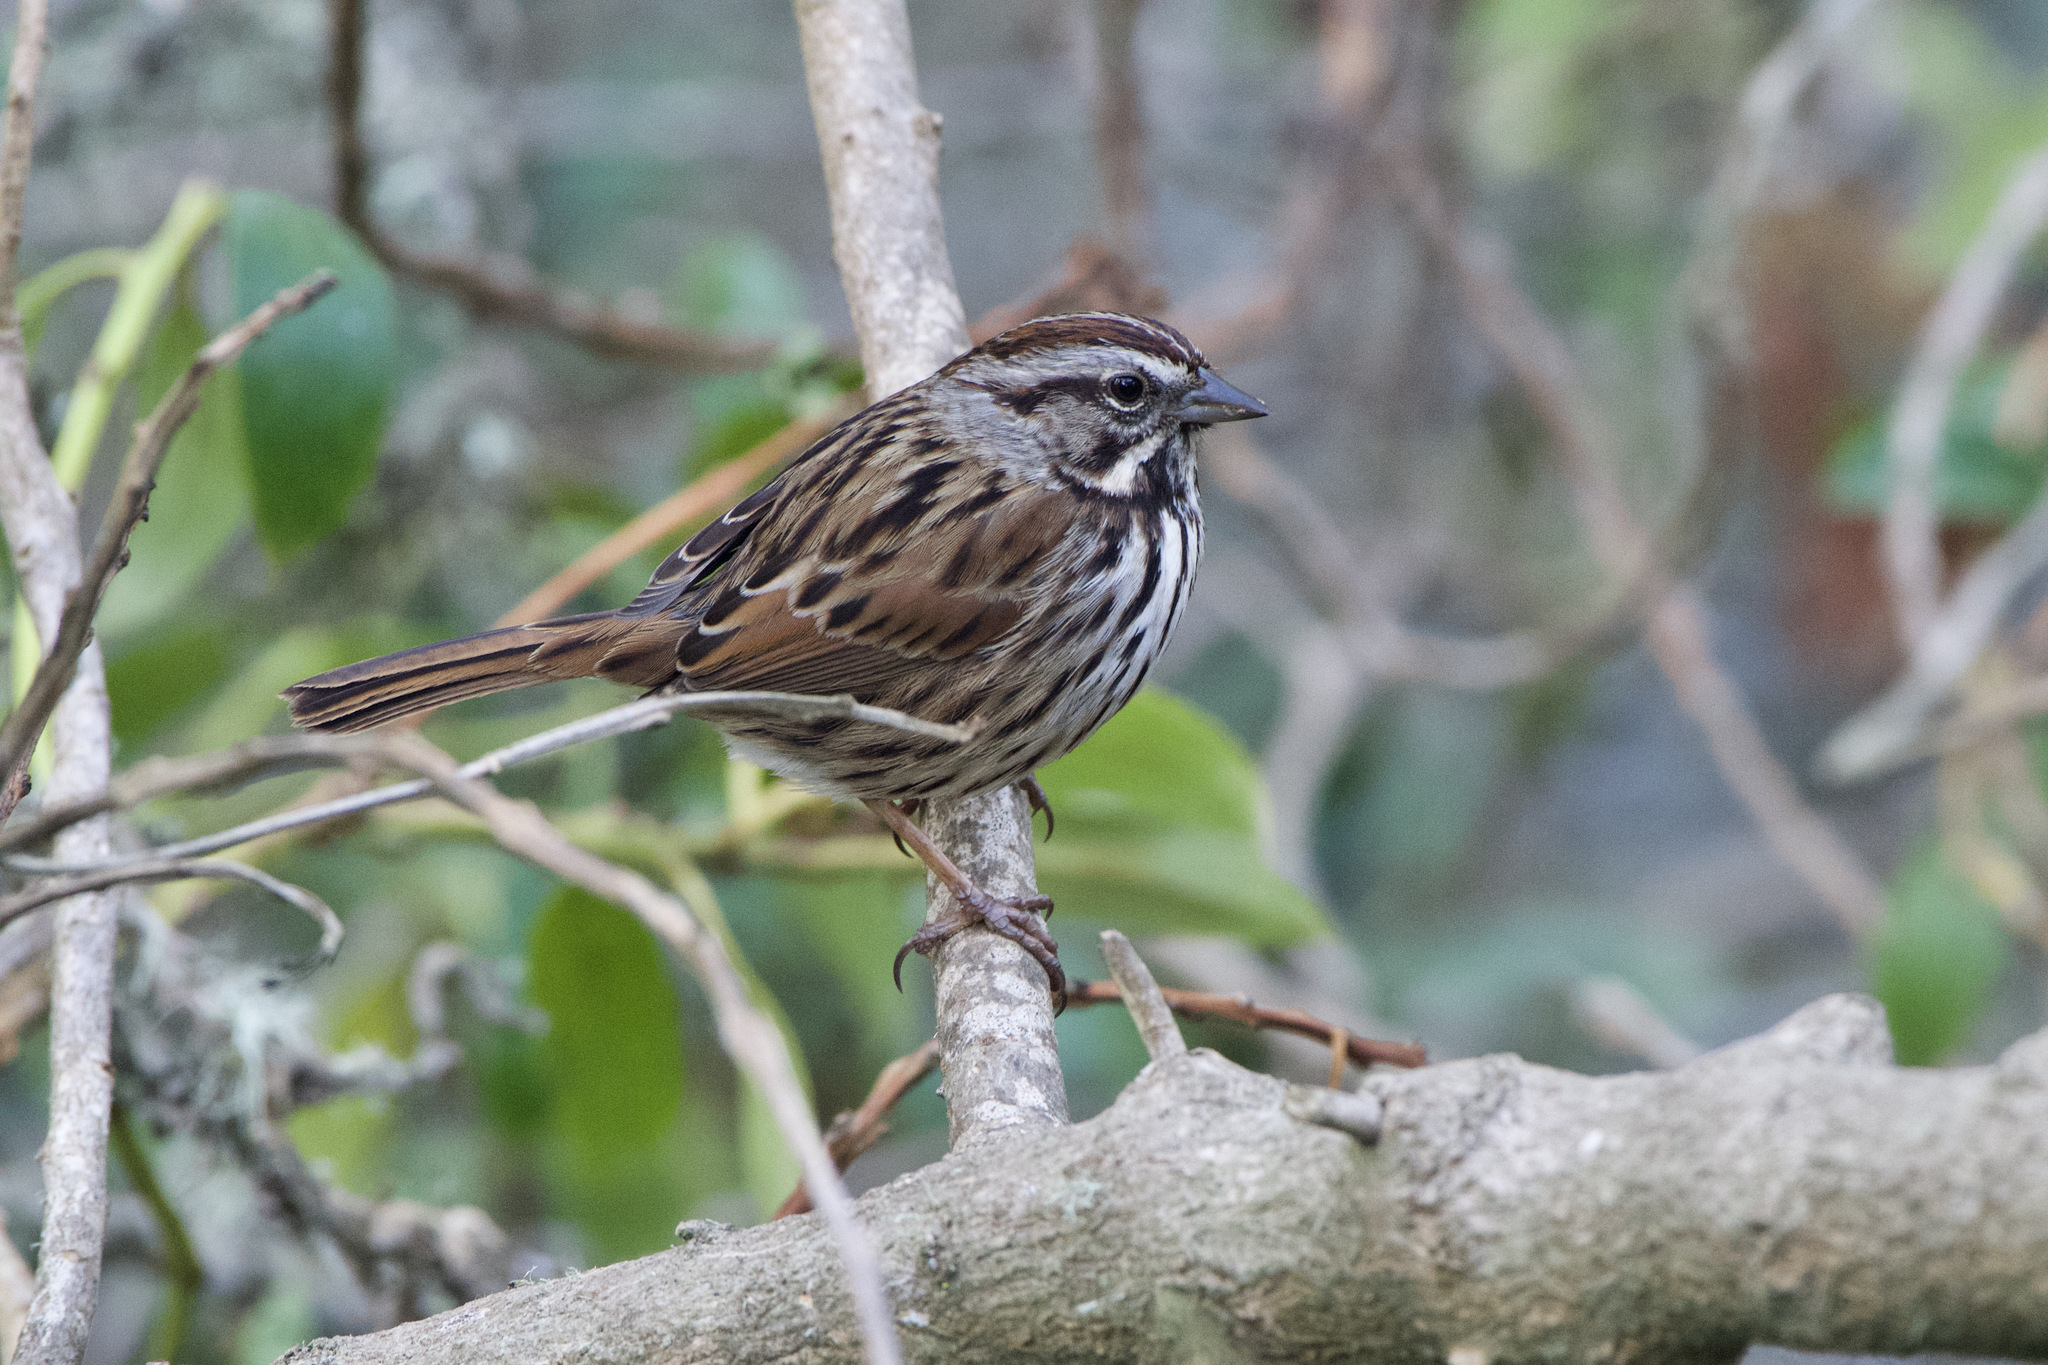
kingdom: Animalia
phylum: Chordata
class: Aves
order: Passeriformes
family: Passerellidae
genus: Melospiza
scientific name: Melospiza melodia
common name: Song sparrow
